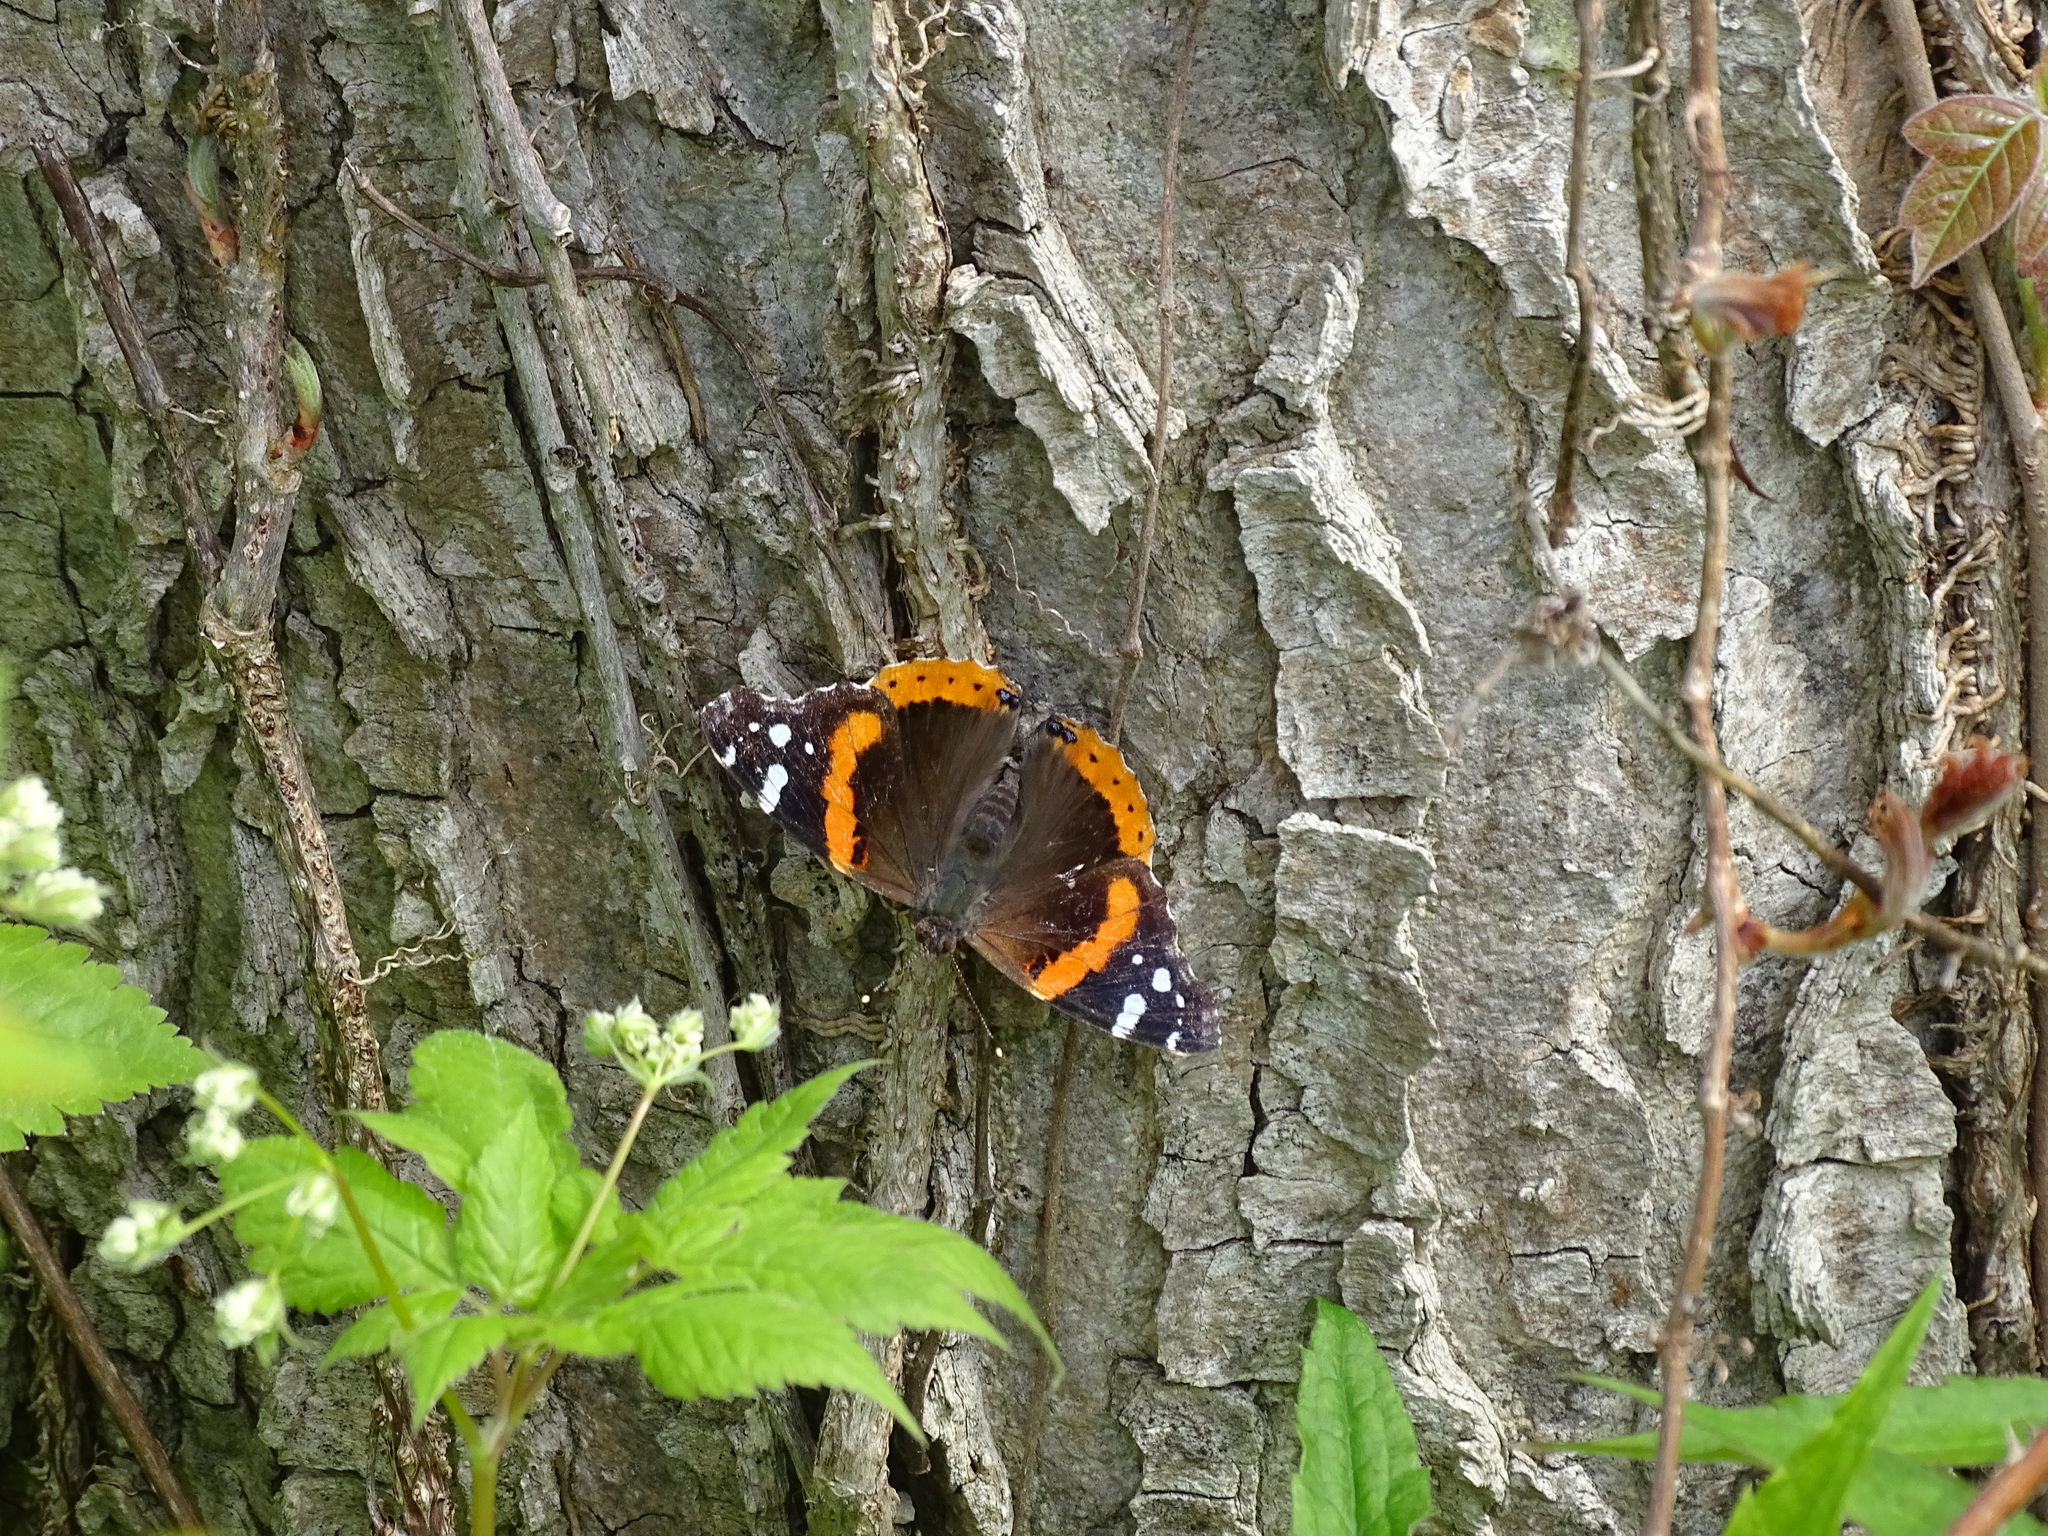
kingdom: Animalia
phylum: Arthropoda
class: Insecta
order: Lepidoptera
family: Nymphalidae
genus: Vanessa
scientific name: Vanessa atalanta
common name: Red admiral
